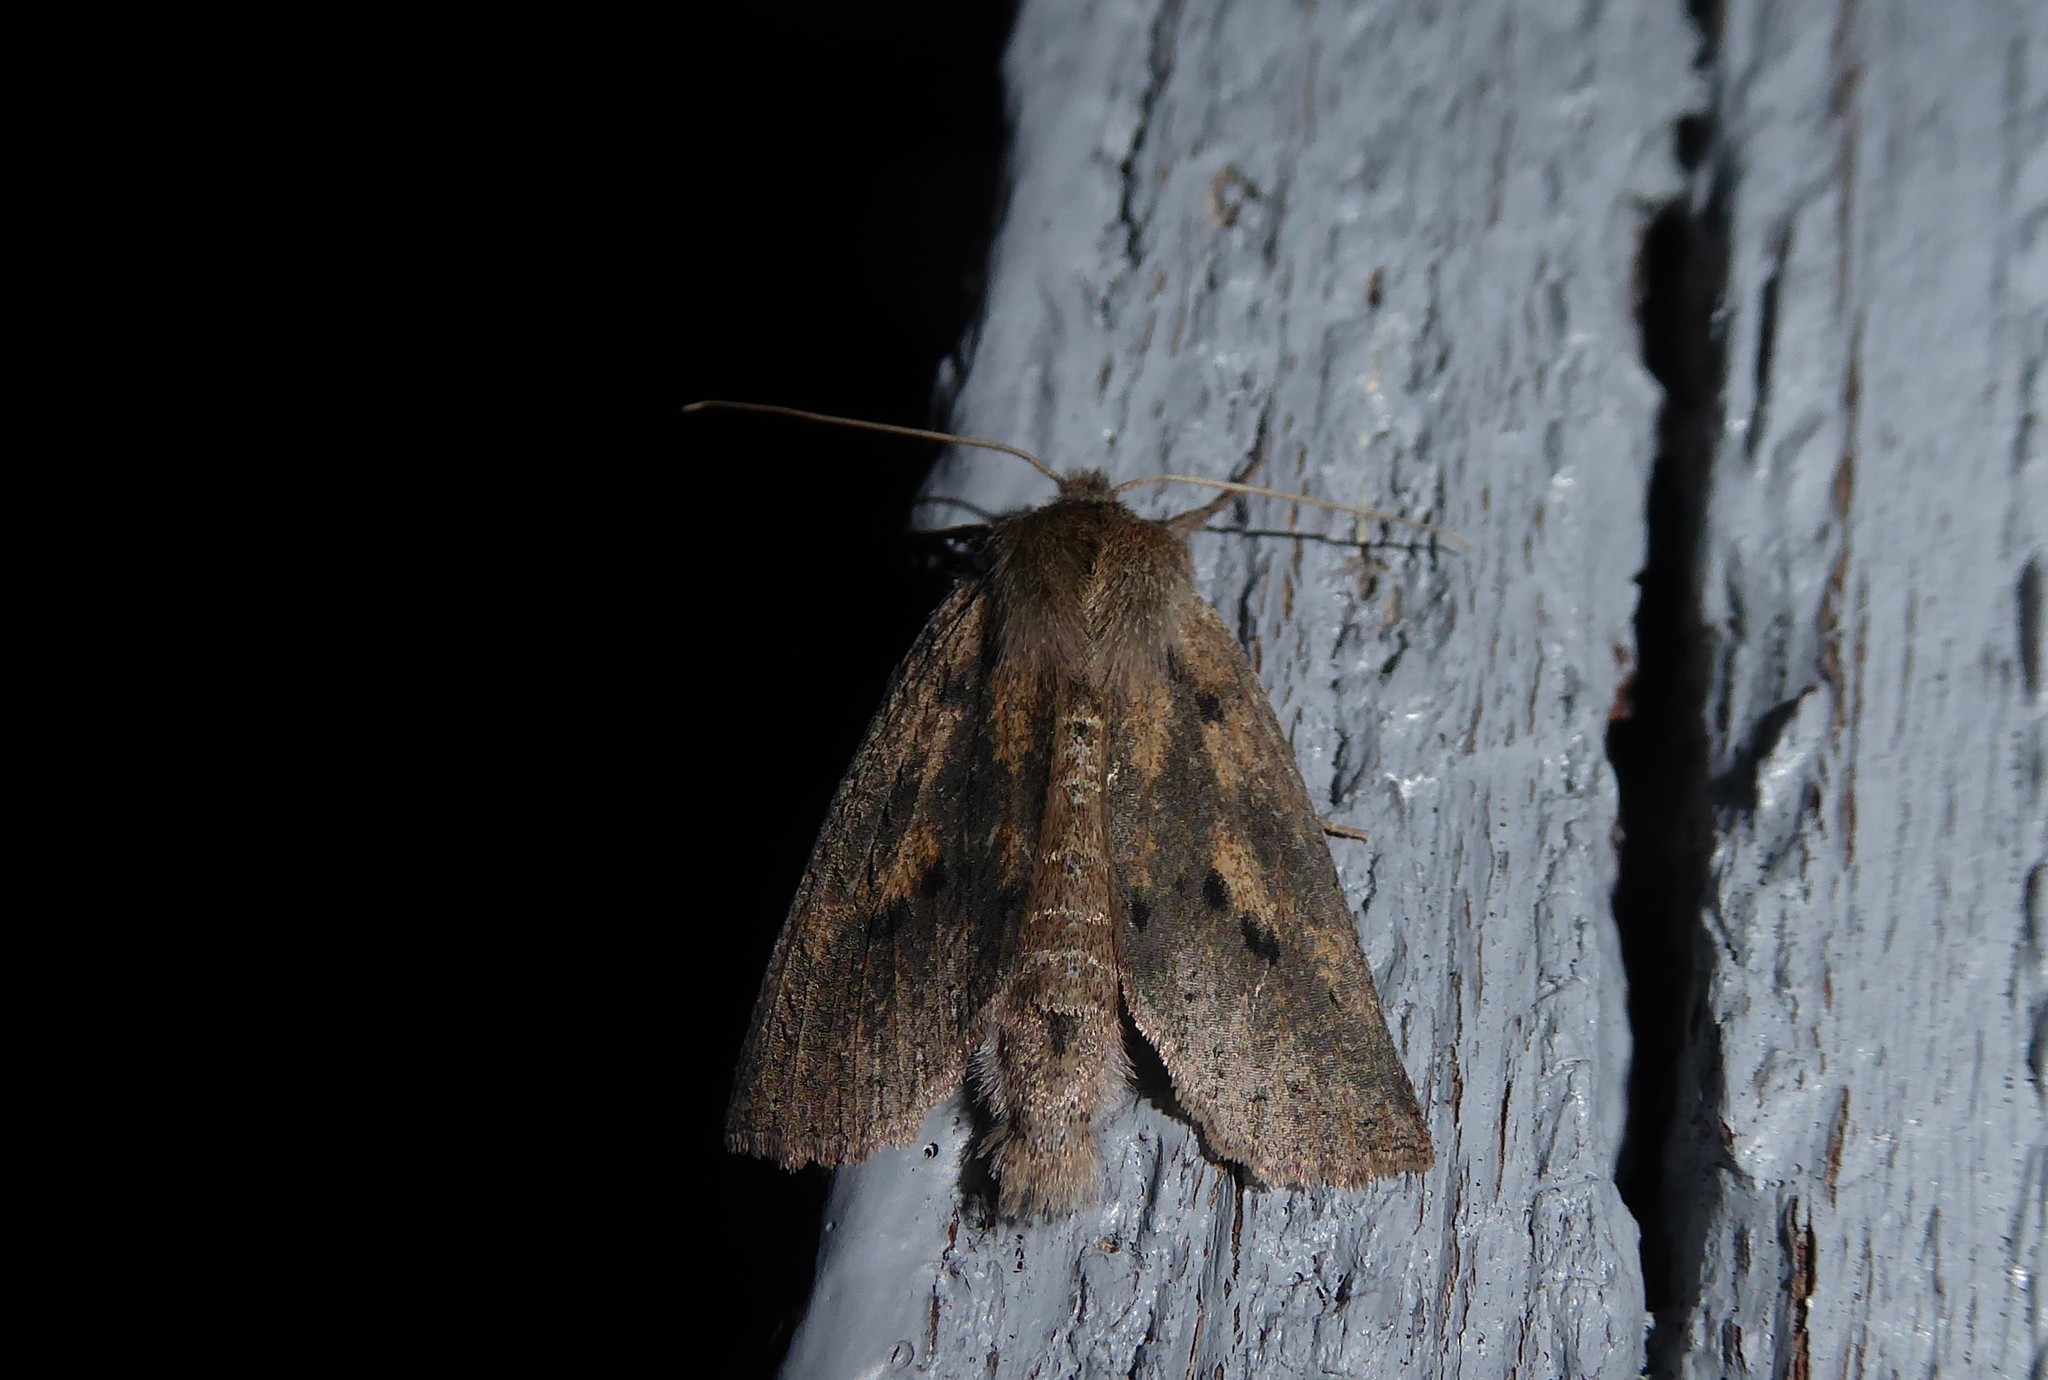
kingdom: Animalia
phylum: Arthropoda
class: Insecta
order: Lepidoptera
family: Geometridae
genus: Declana
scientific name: Declana leptomera
